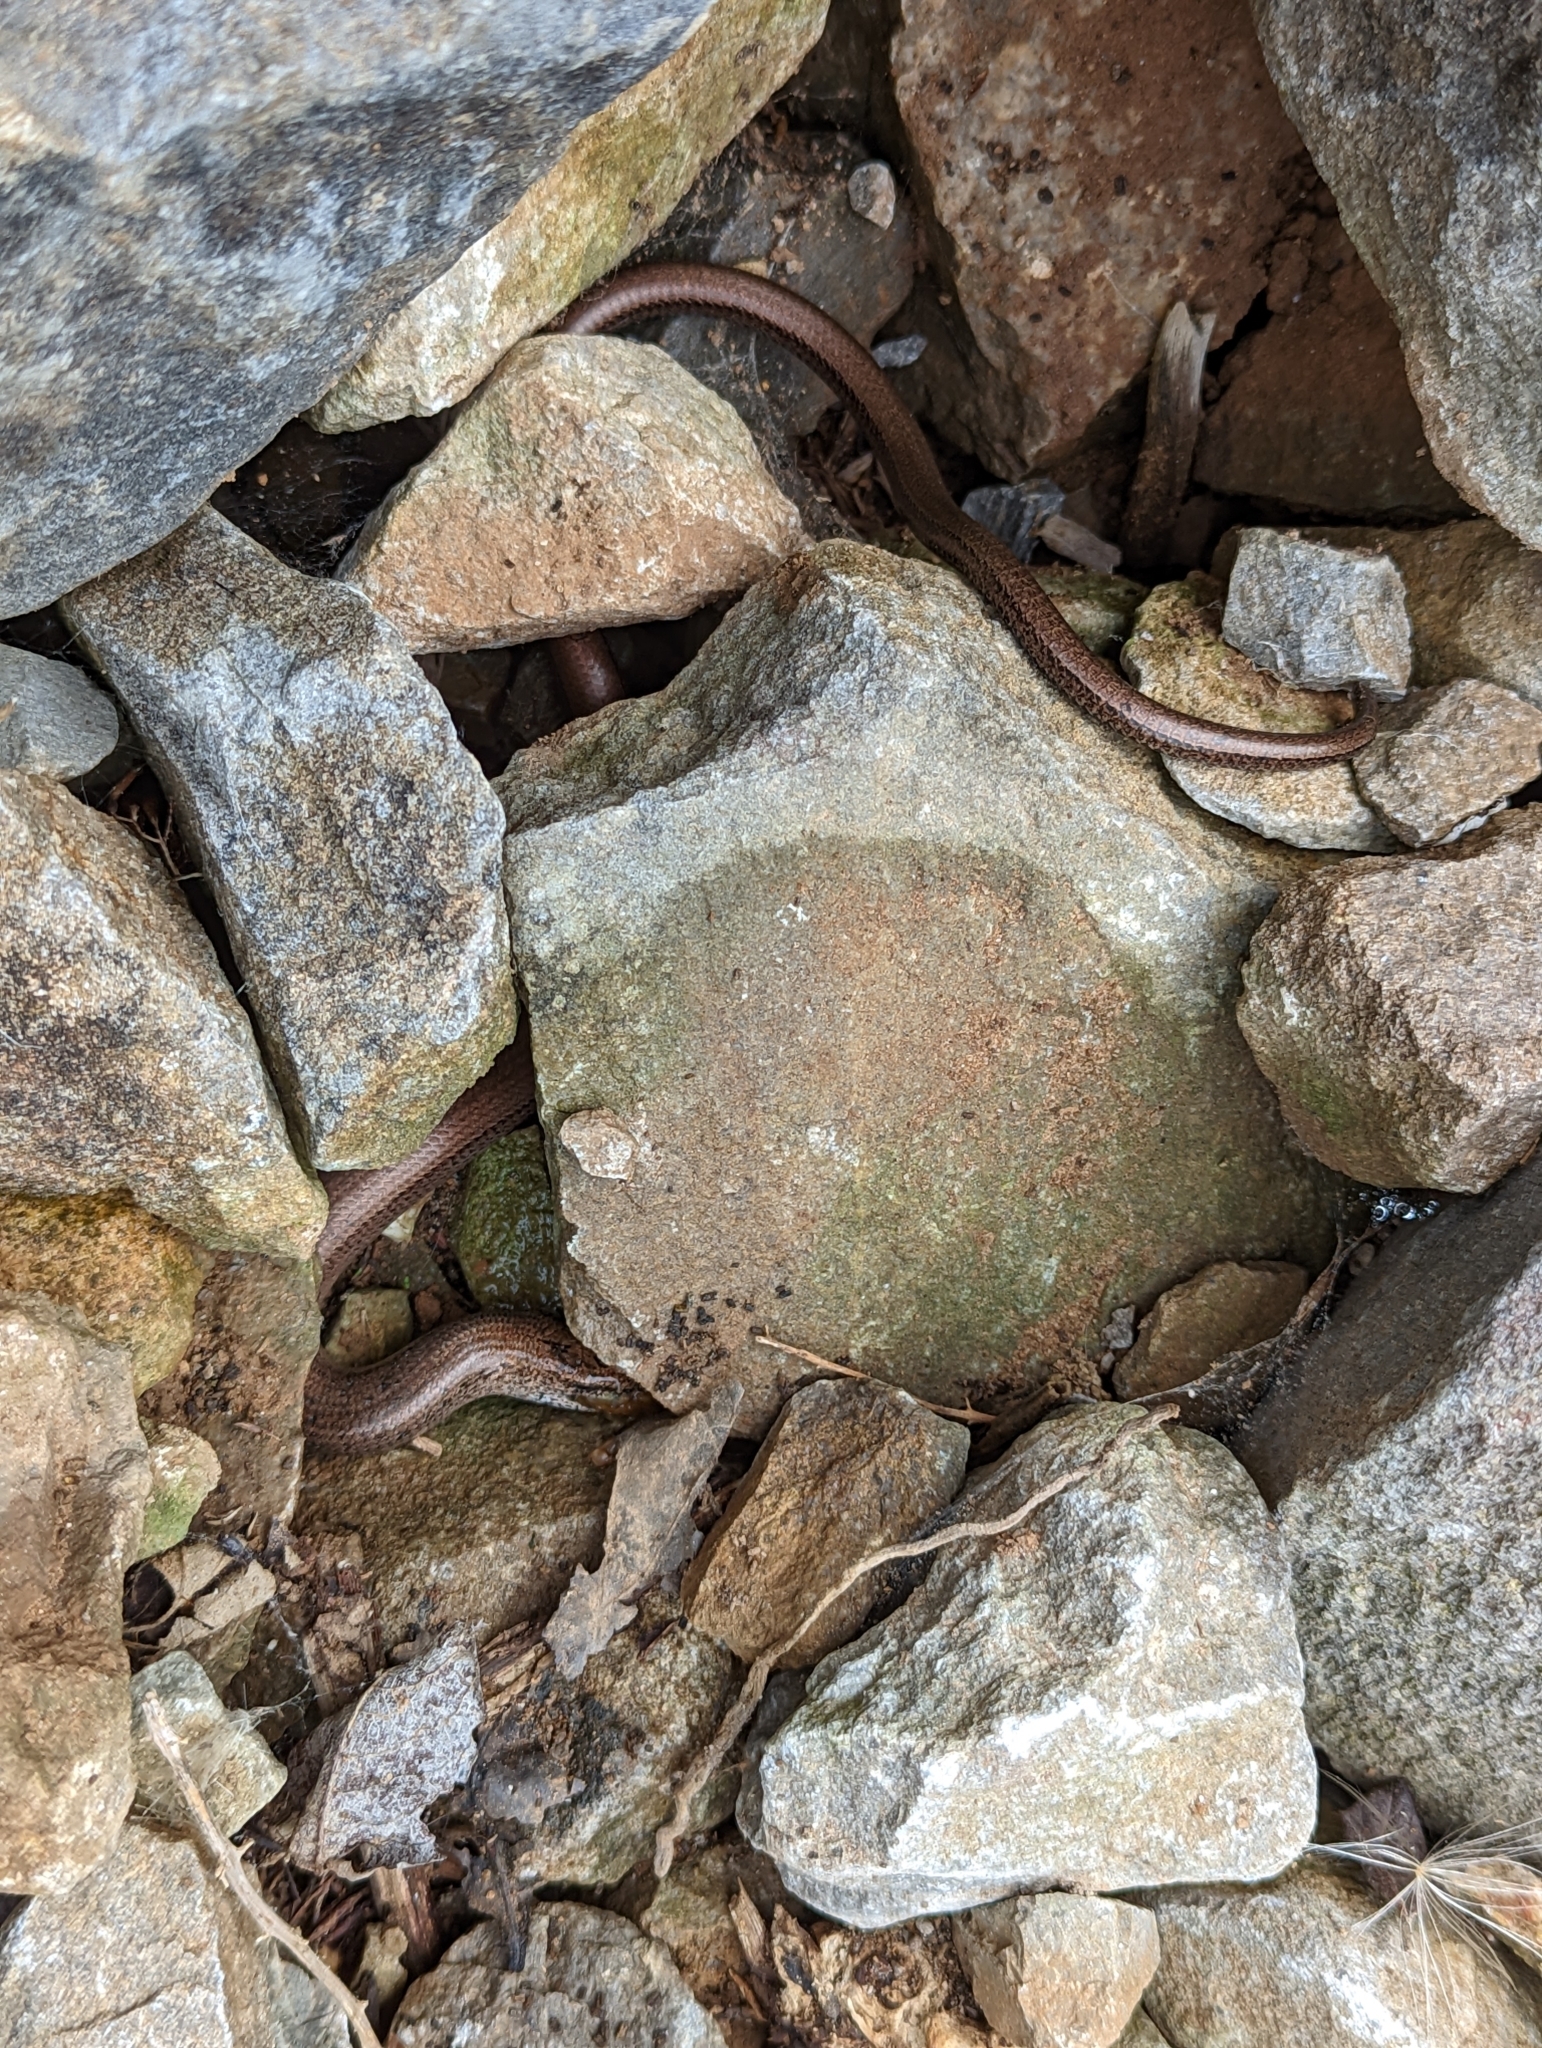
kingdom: Animalia
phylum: Chordata
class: Squamata
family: Anguidae
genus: Anguis
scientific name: Anguis fragilis
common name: Slow worm
